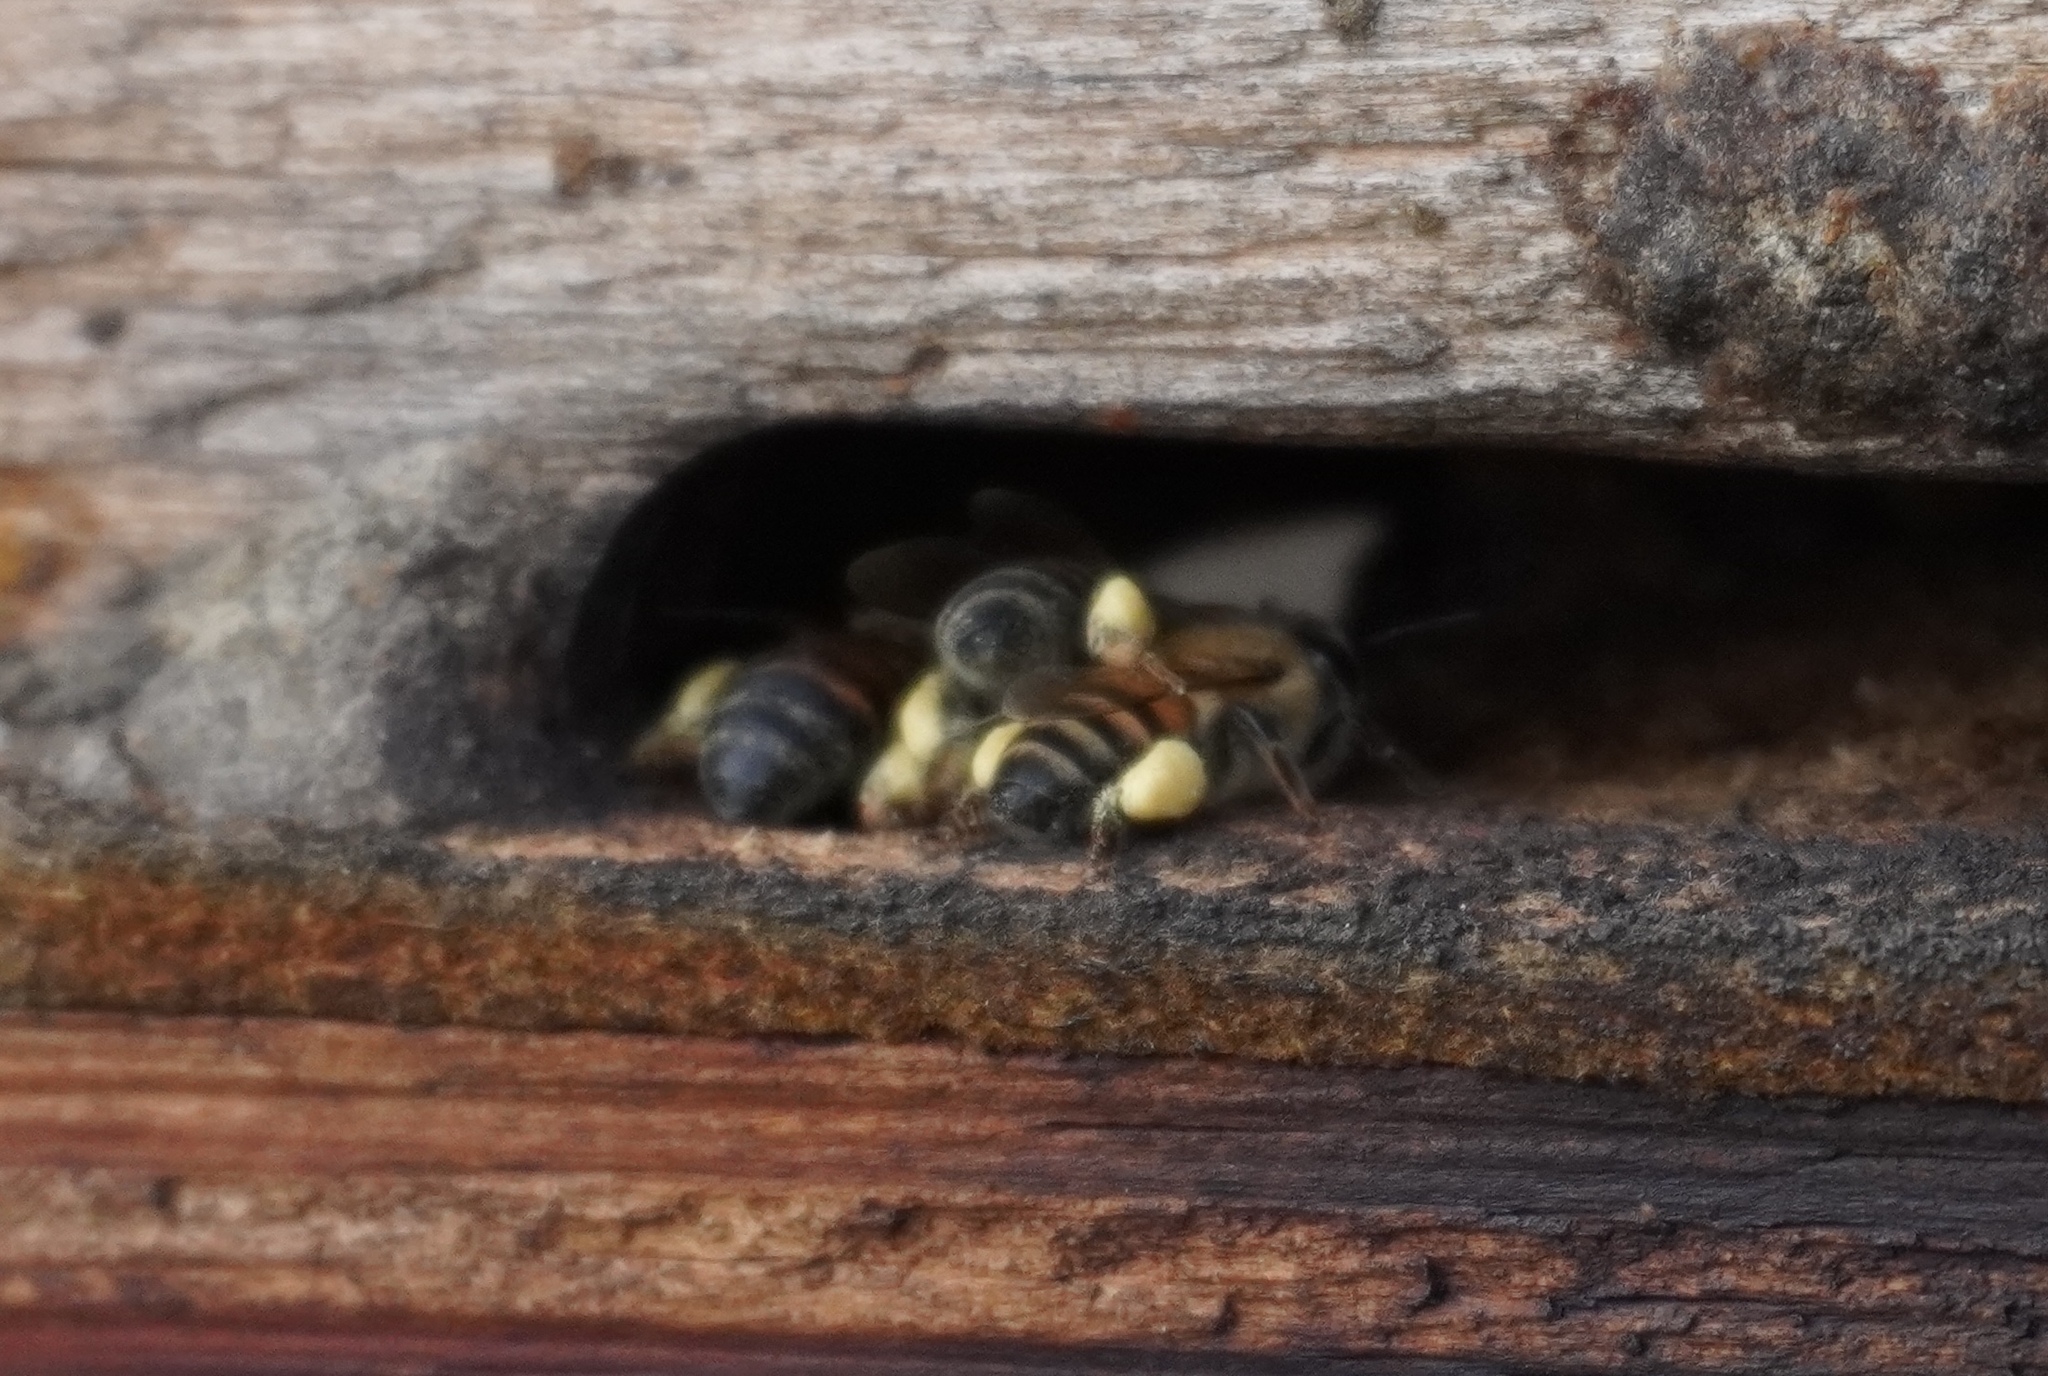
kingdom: Animalia
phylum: Arthropoda
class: Insecta
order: Hymenoptera
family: Apidae
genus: Apis
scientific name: Apis mellifera
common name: Honey bee
